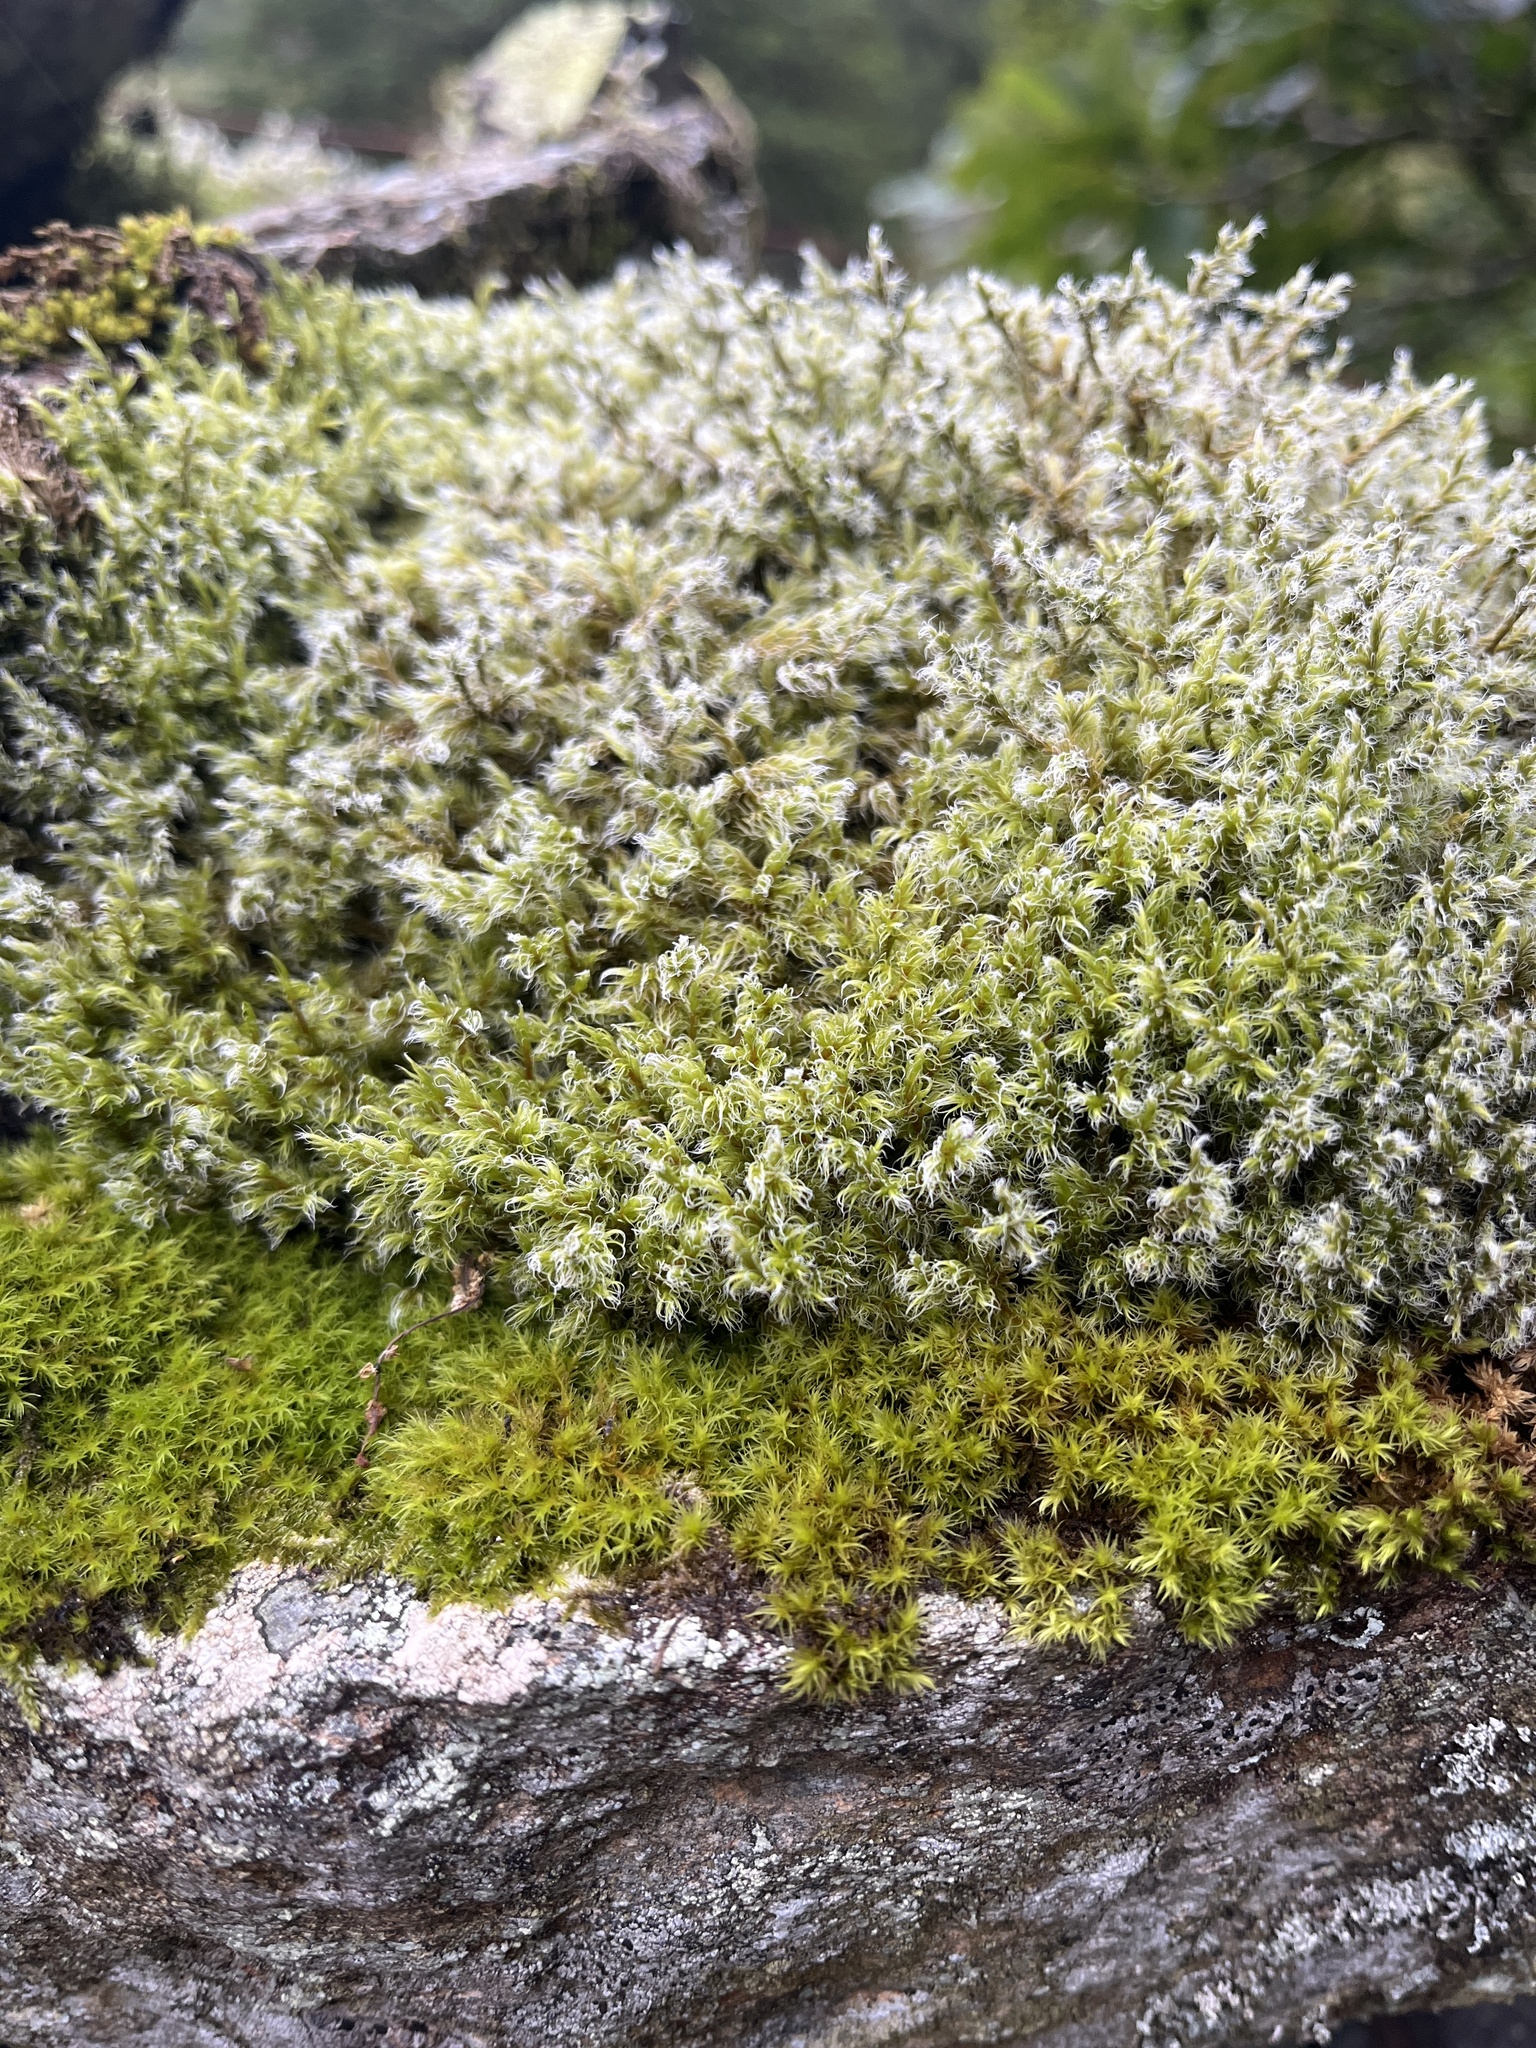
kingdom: Plantae
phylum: Bryophyta
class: Bryopsida
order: Grimmiales
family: Grimmiaceae
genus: Racomitrium
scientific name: Racomitrium lanuginosum
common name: Hoary rock moss
